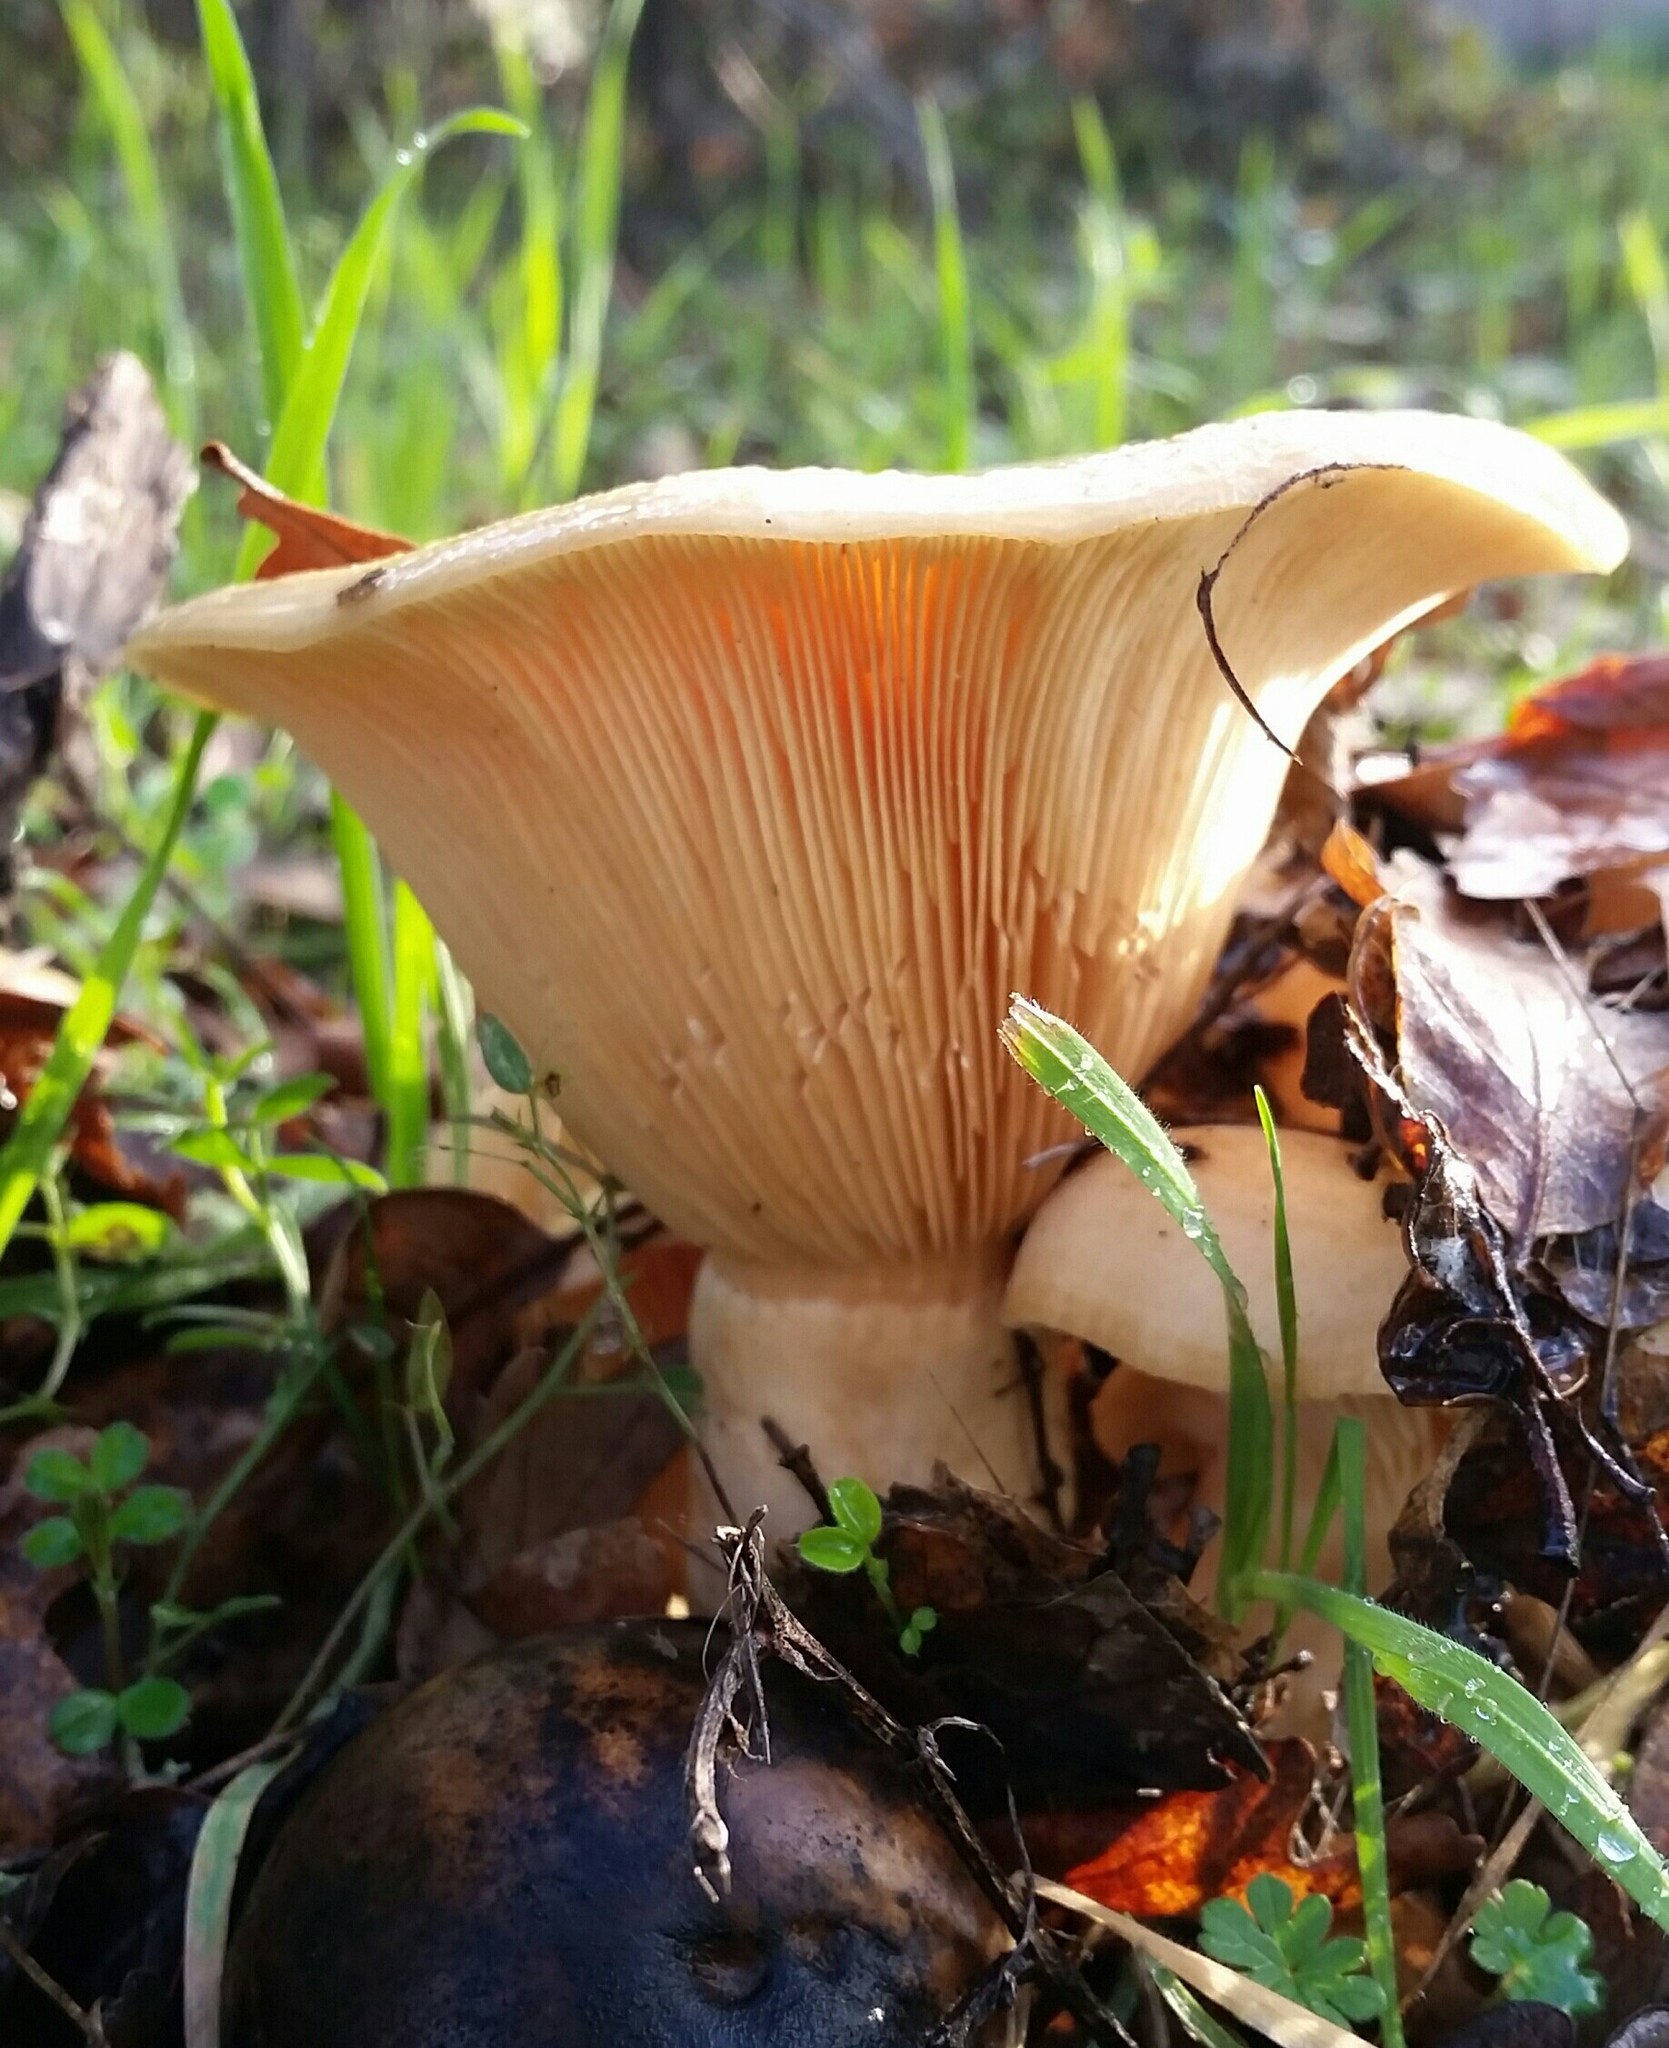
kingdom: Fungi
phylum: Basidiomycota
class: Agaricomycetes
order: Russulales
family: Russulaceae
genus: Lactarius
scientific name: Lactarius alnicola
